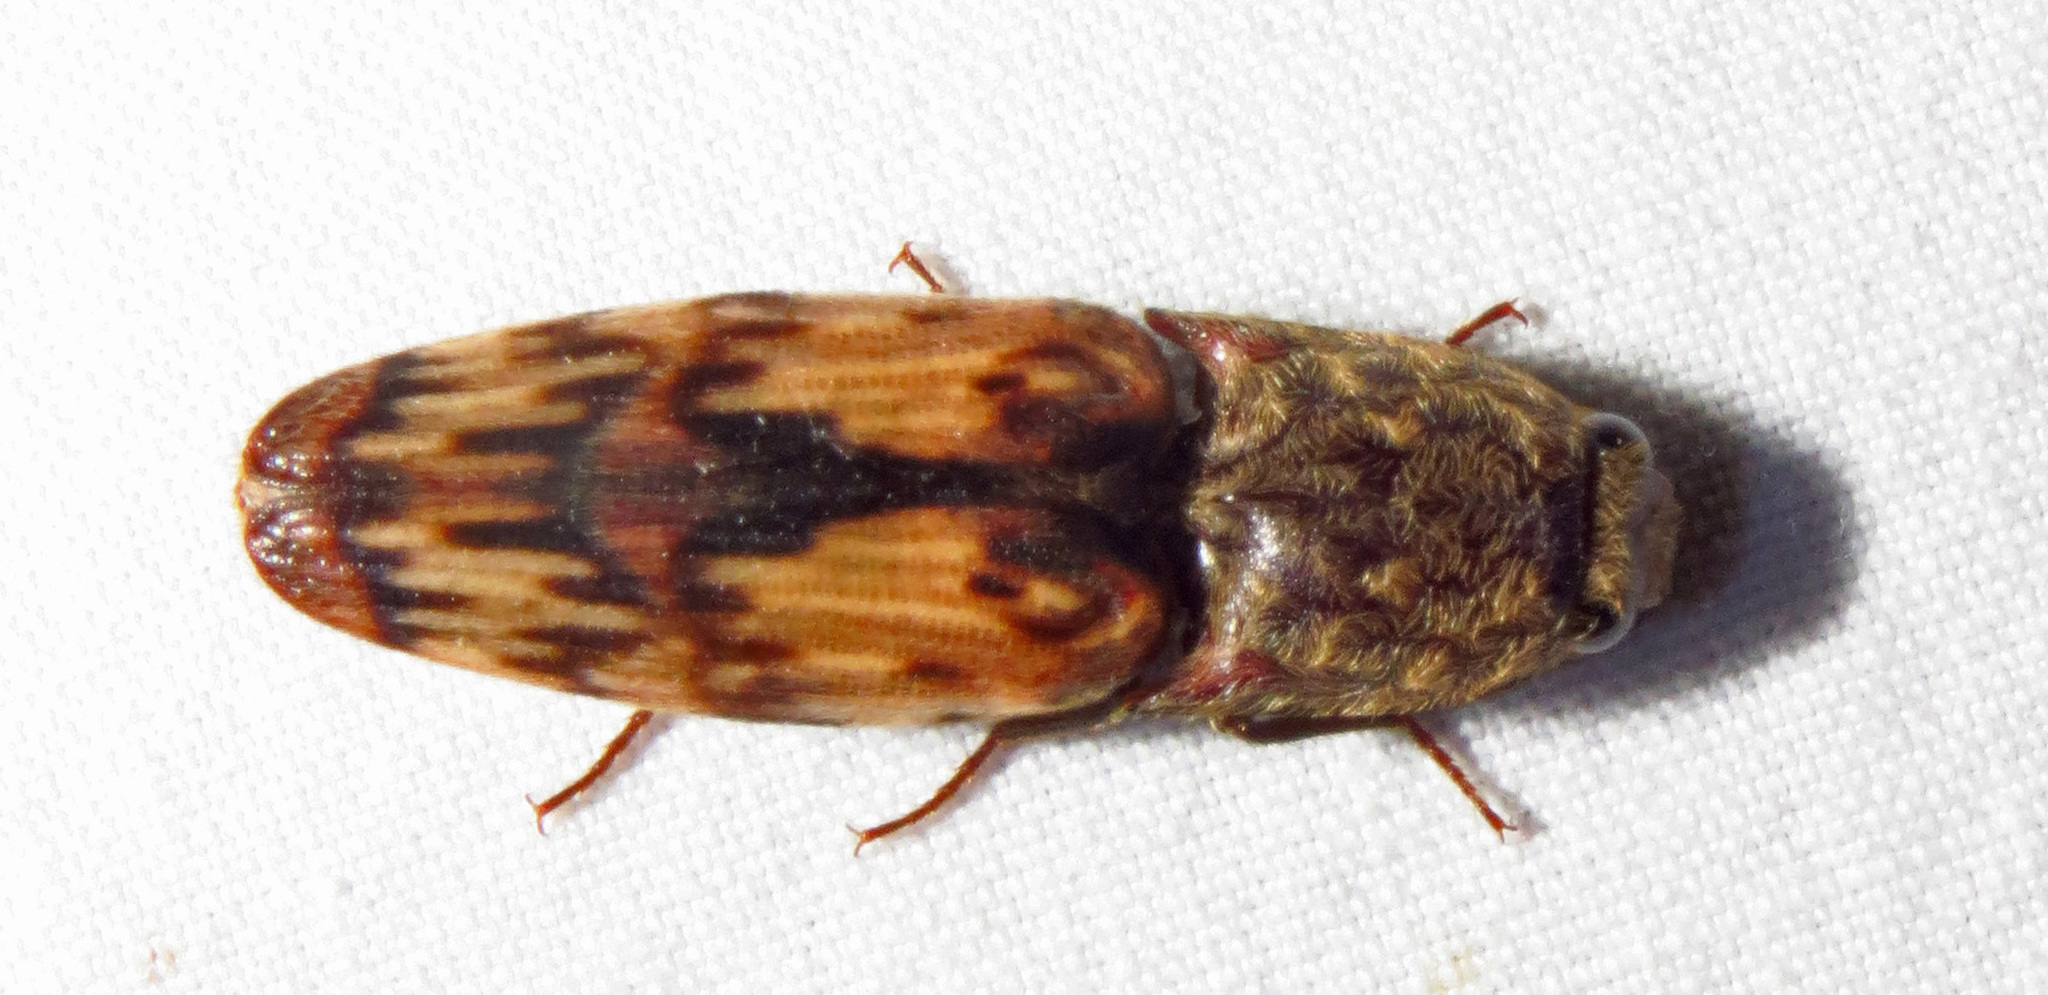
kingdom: Animalia
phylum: Arthropoda
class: Insecta
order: Coleoptera
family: Elateridae
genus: Pherhimius
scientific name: Pherhimius fascicularis
